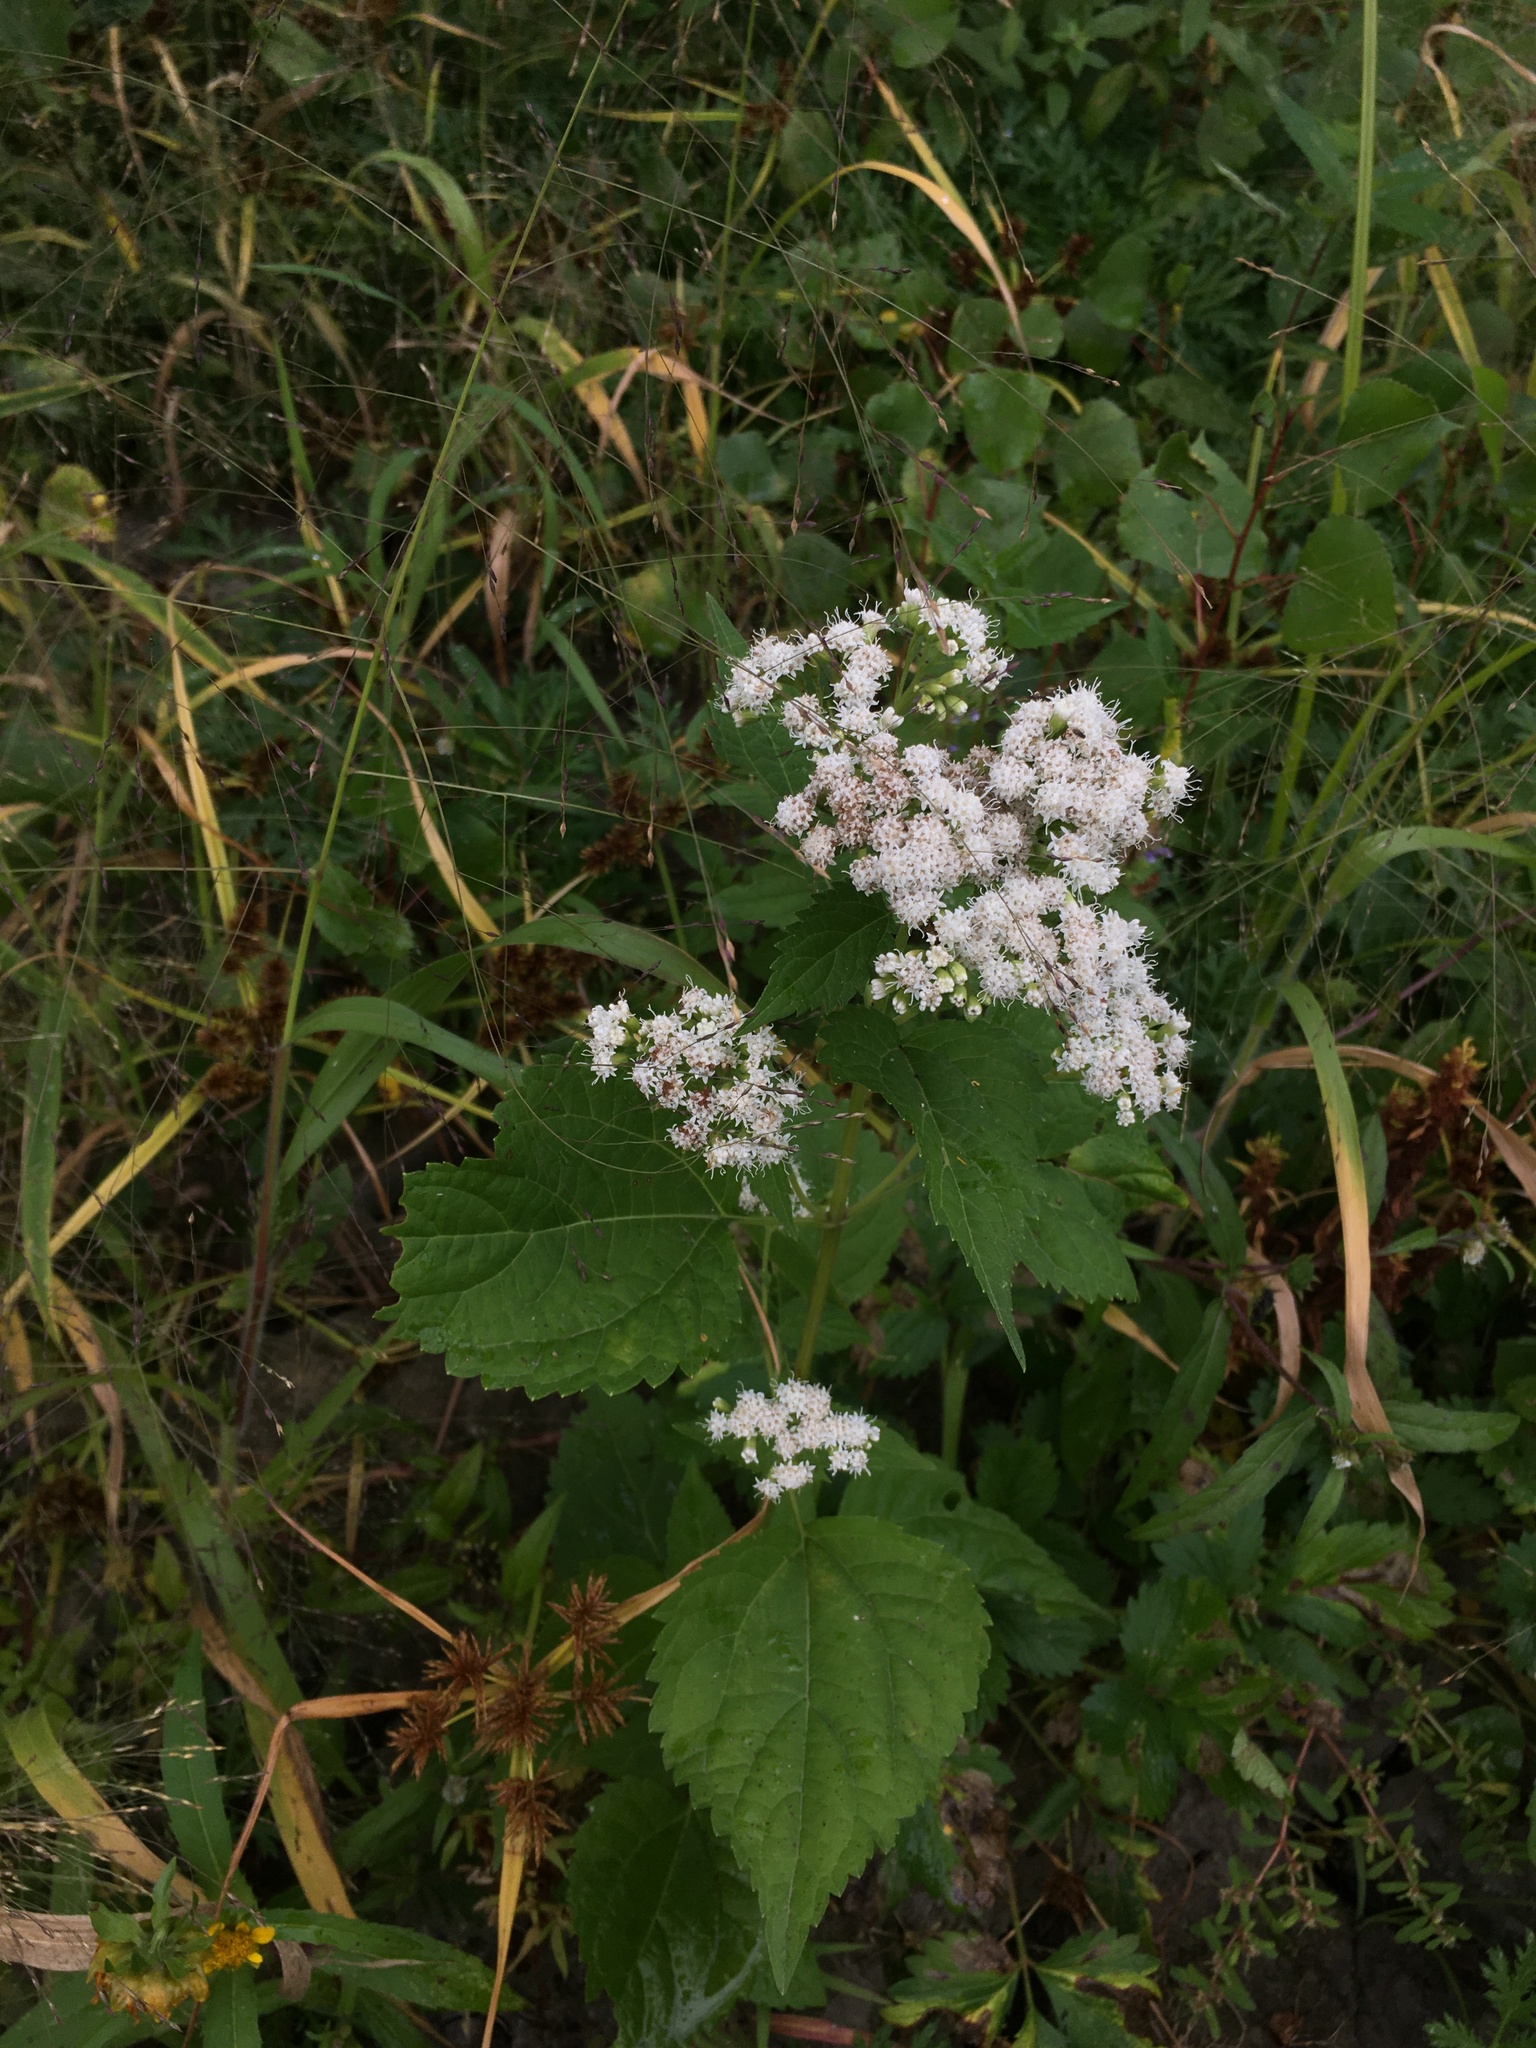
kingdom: Plantae
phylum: Tracheophyta
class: Magnoliopsida
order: Asterales
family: Asteraceae
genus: Ageratina
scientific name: Ageratina altissima
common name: White snakeroot
